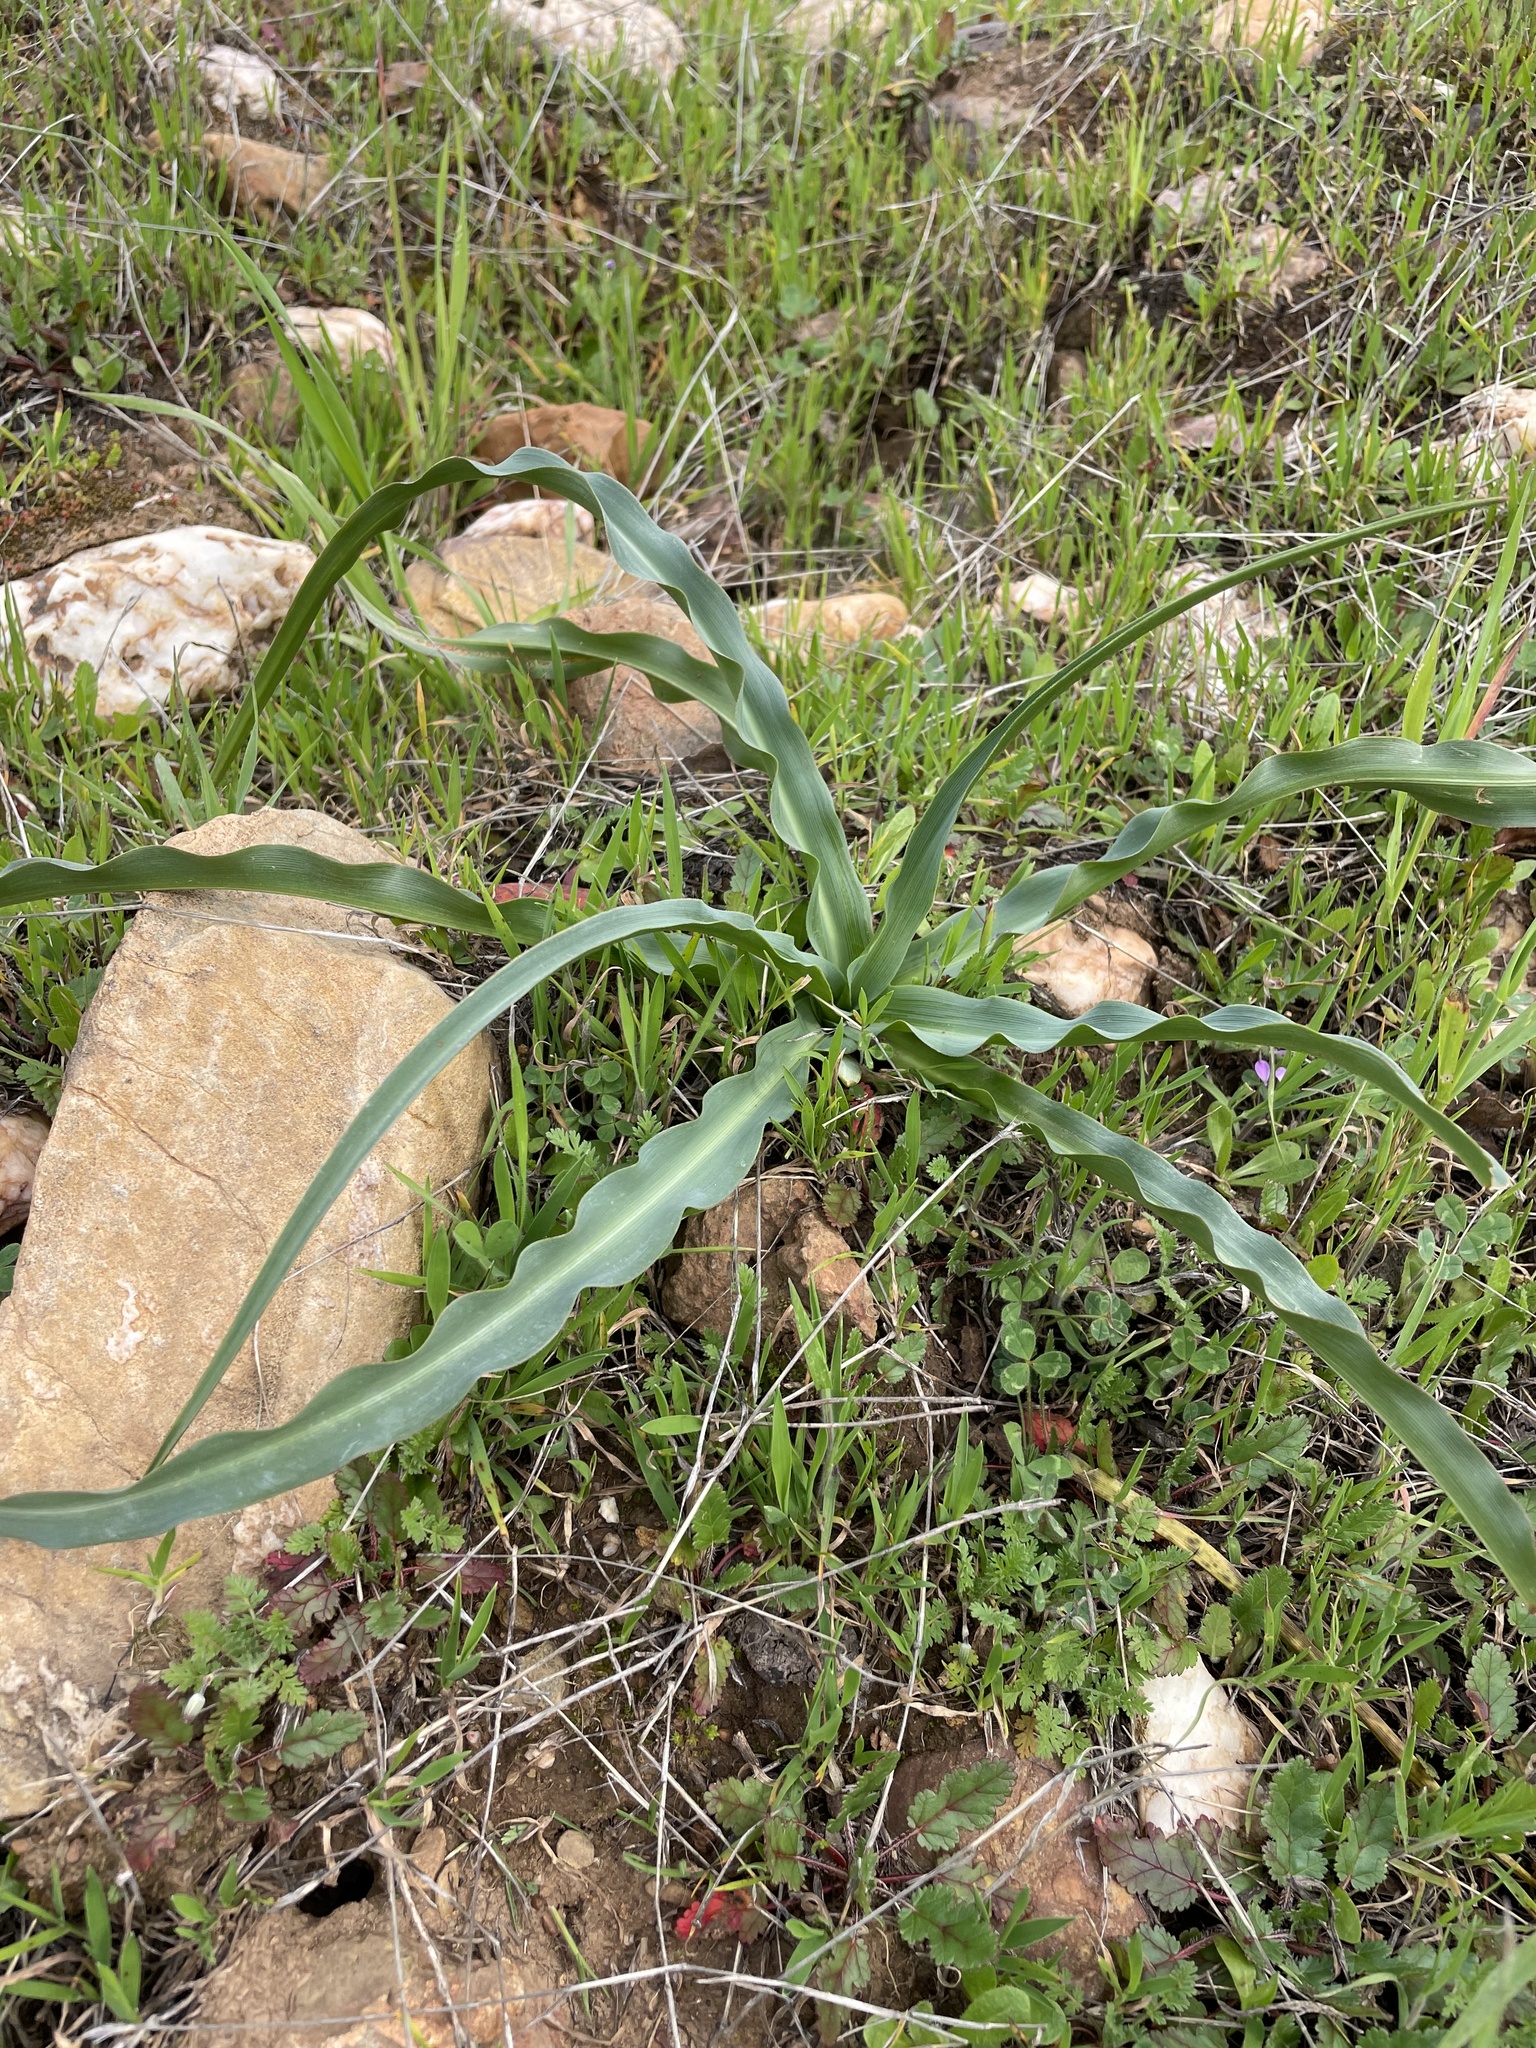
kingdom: Plantae
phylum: Tracheophyta
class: Liliopsida
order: Asparagales
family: Asparagaceae
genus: Chlorogalum
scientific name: Chlorogalum pomeridianum
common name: Amole
